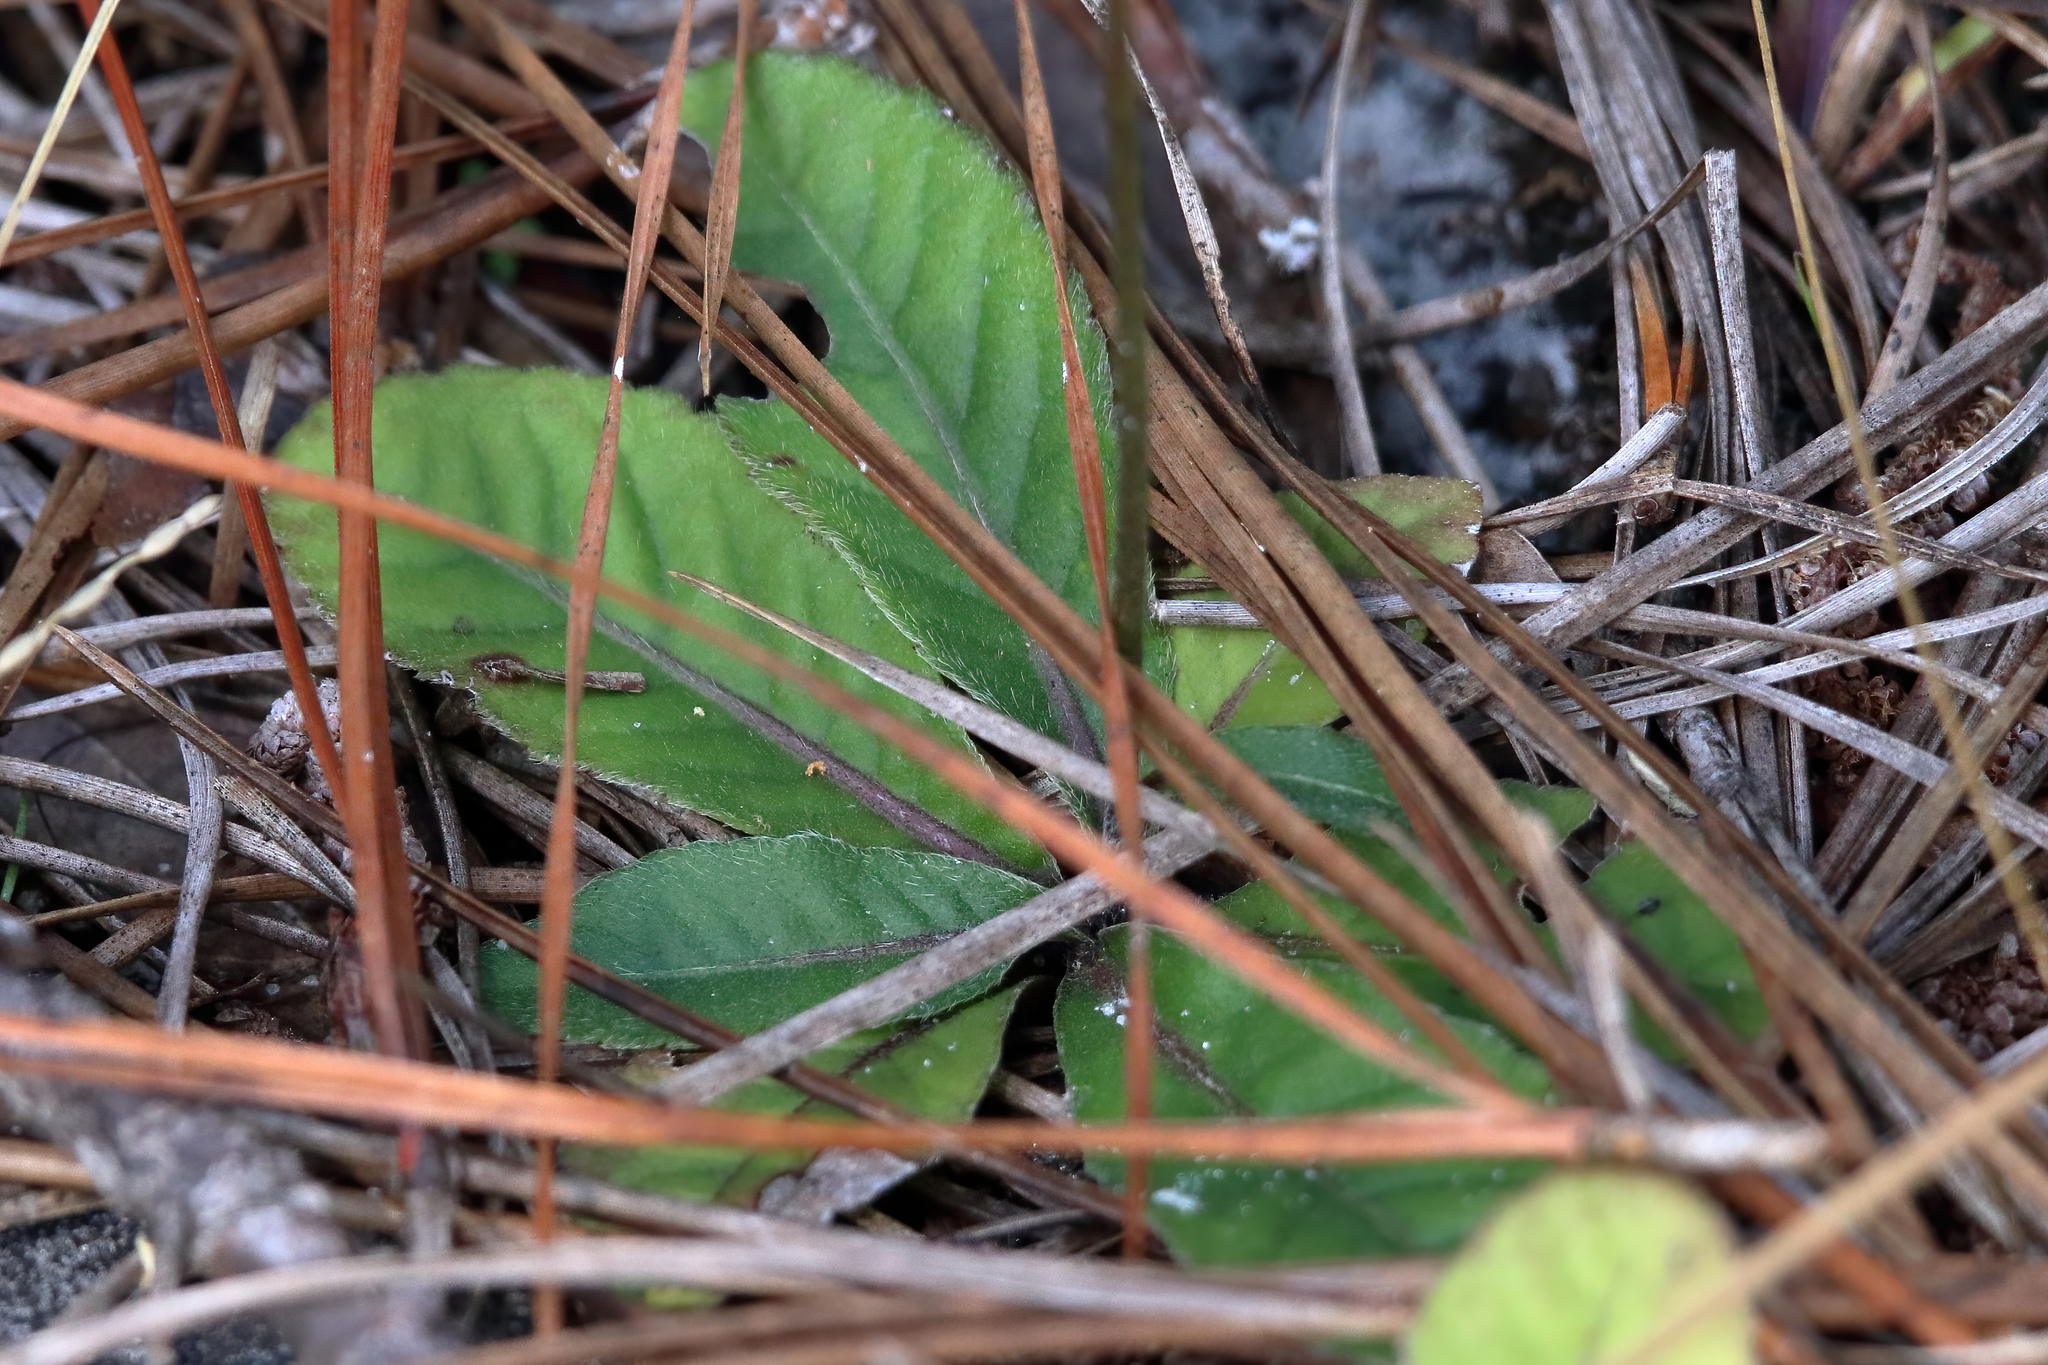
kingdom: Plantae
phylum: Tracheophyta
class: Magnoliopsida
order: Asterales
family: Asteraceae
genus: Elephantopus
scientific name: Elephantopus tomentosus
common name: Tobacco-weed
